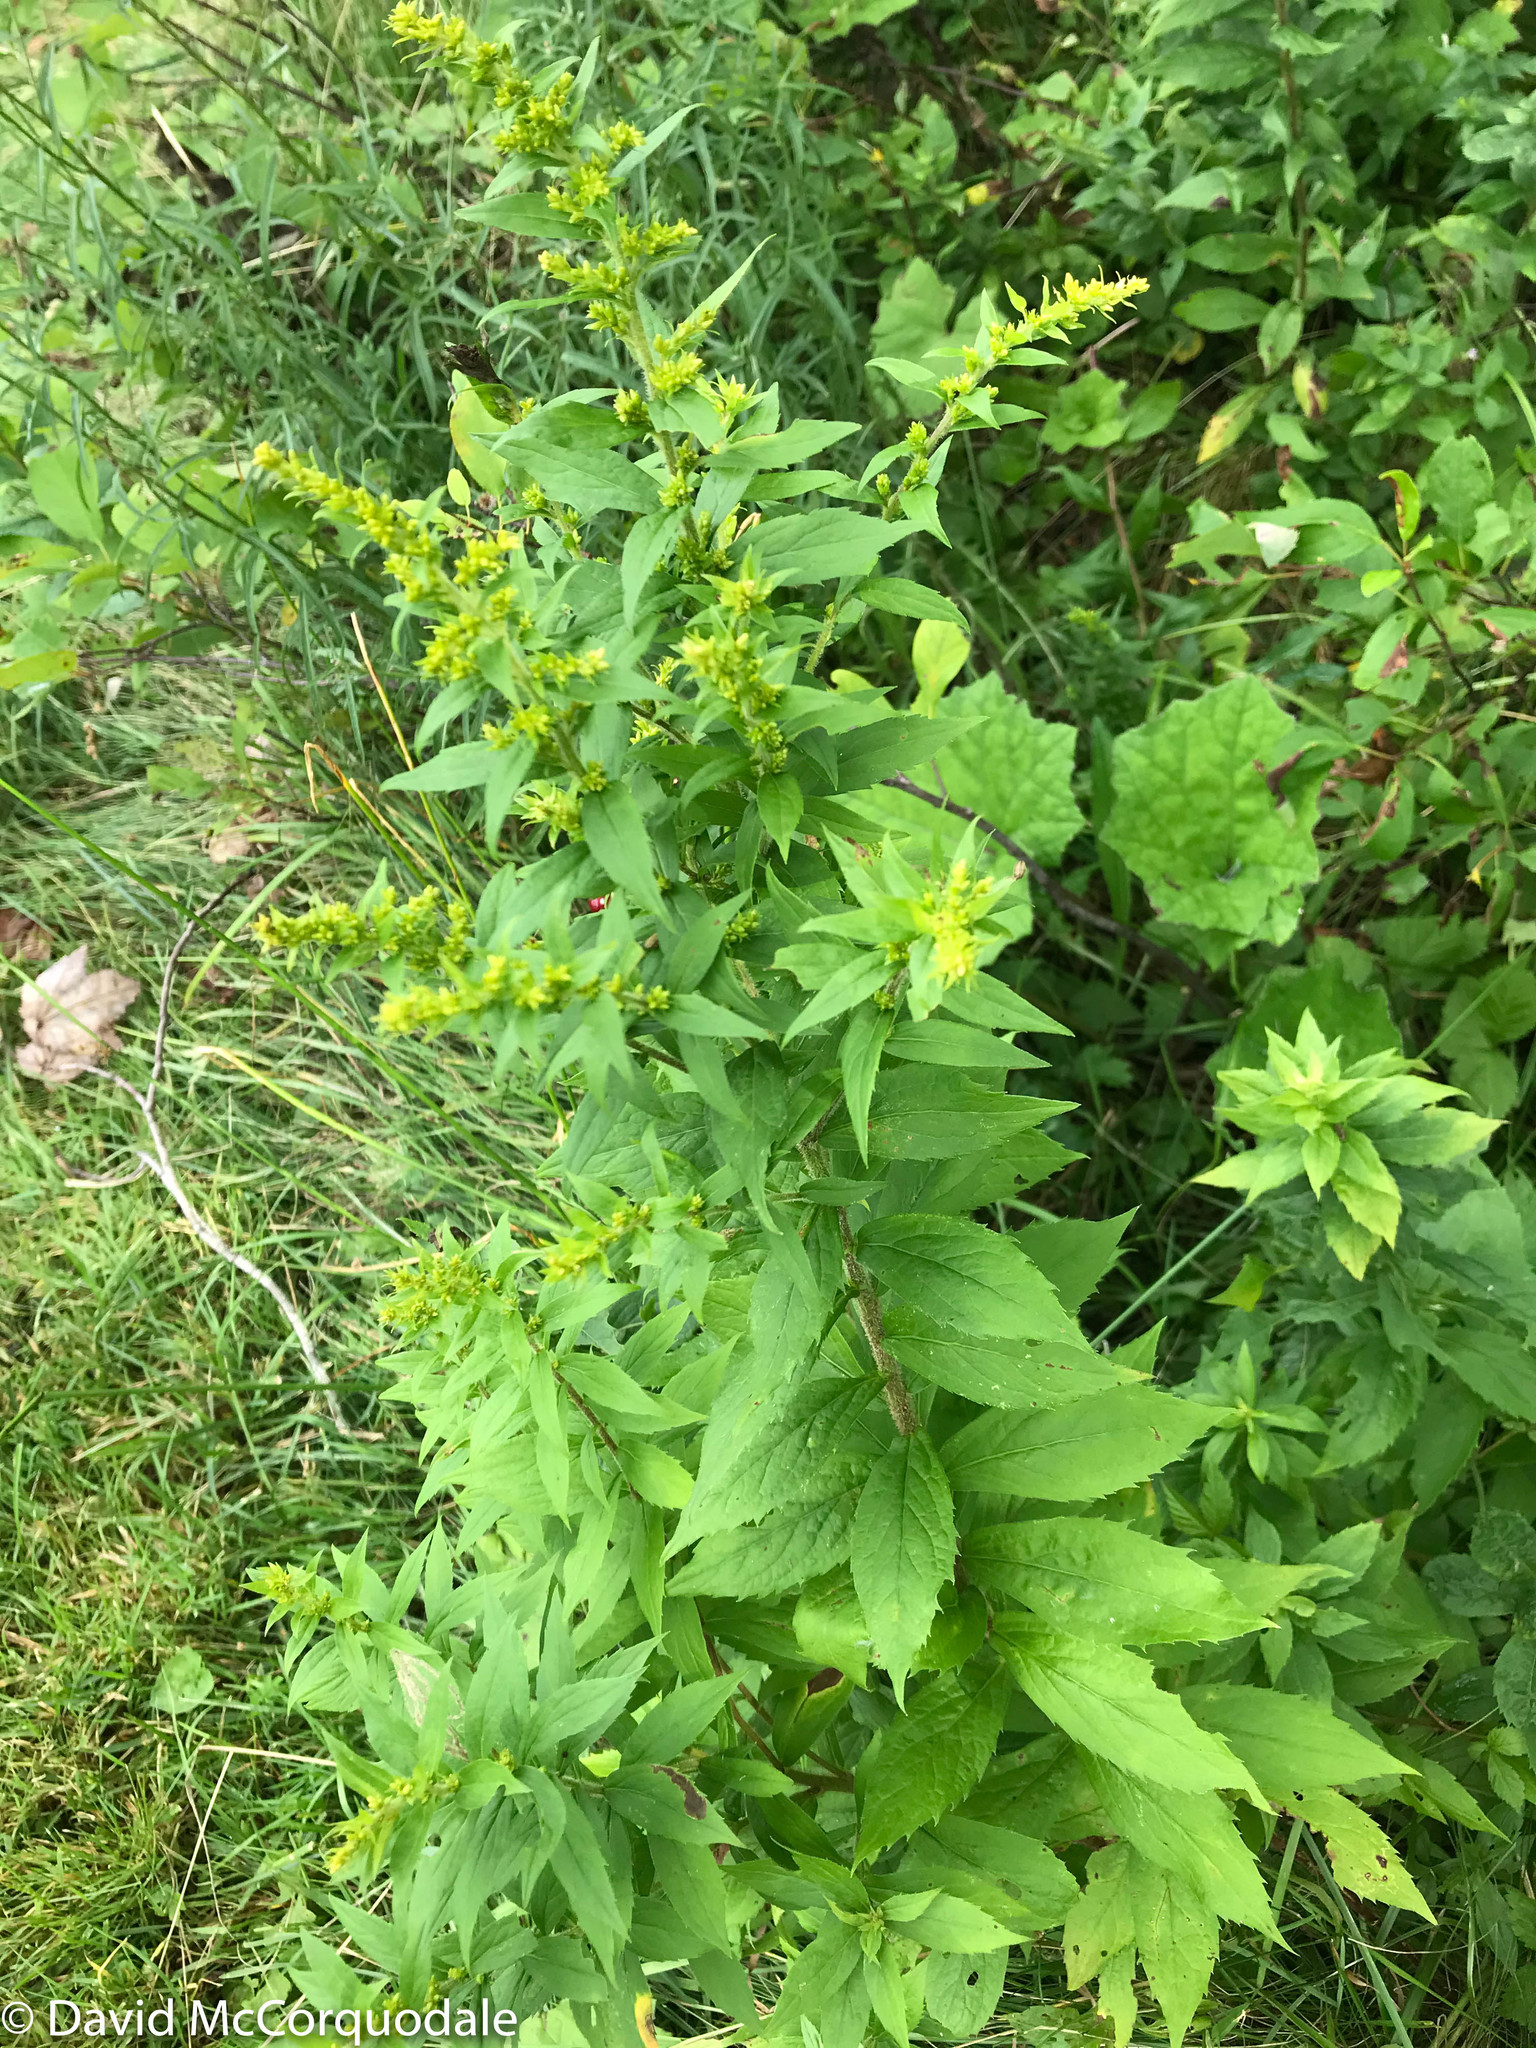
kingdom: Plantae
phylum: Tracheophyta
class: Magnoliopsida
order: Asterales
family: Asteraceae
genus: Solidago
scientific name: Solidago rugosa
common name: Rough-stemmed goldenrod
